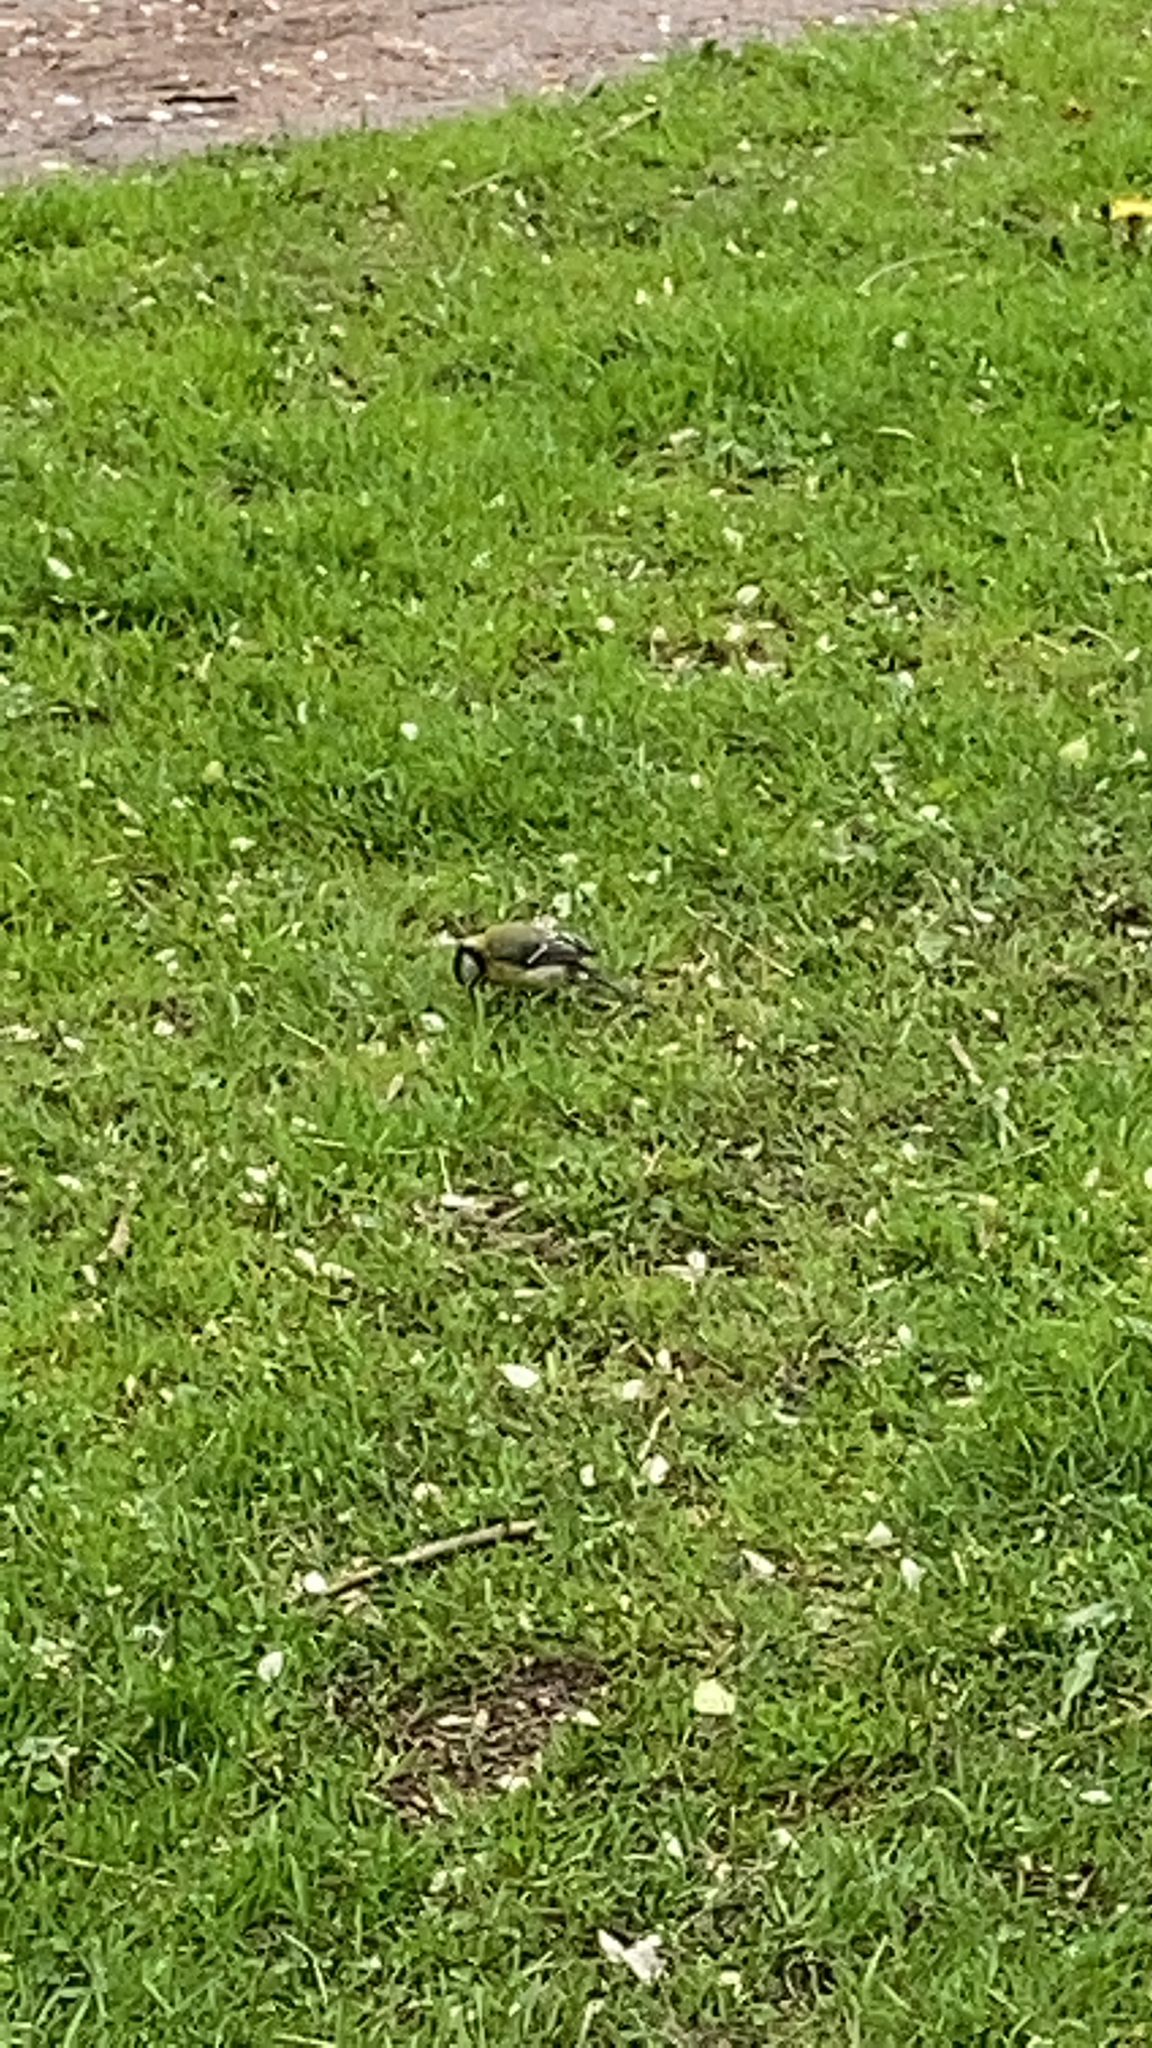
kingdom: Animalia
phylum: Chordata
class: Aves
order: Passeriformes
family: Paridae
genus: Parus
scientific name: Parus major
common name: Great tit
